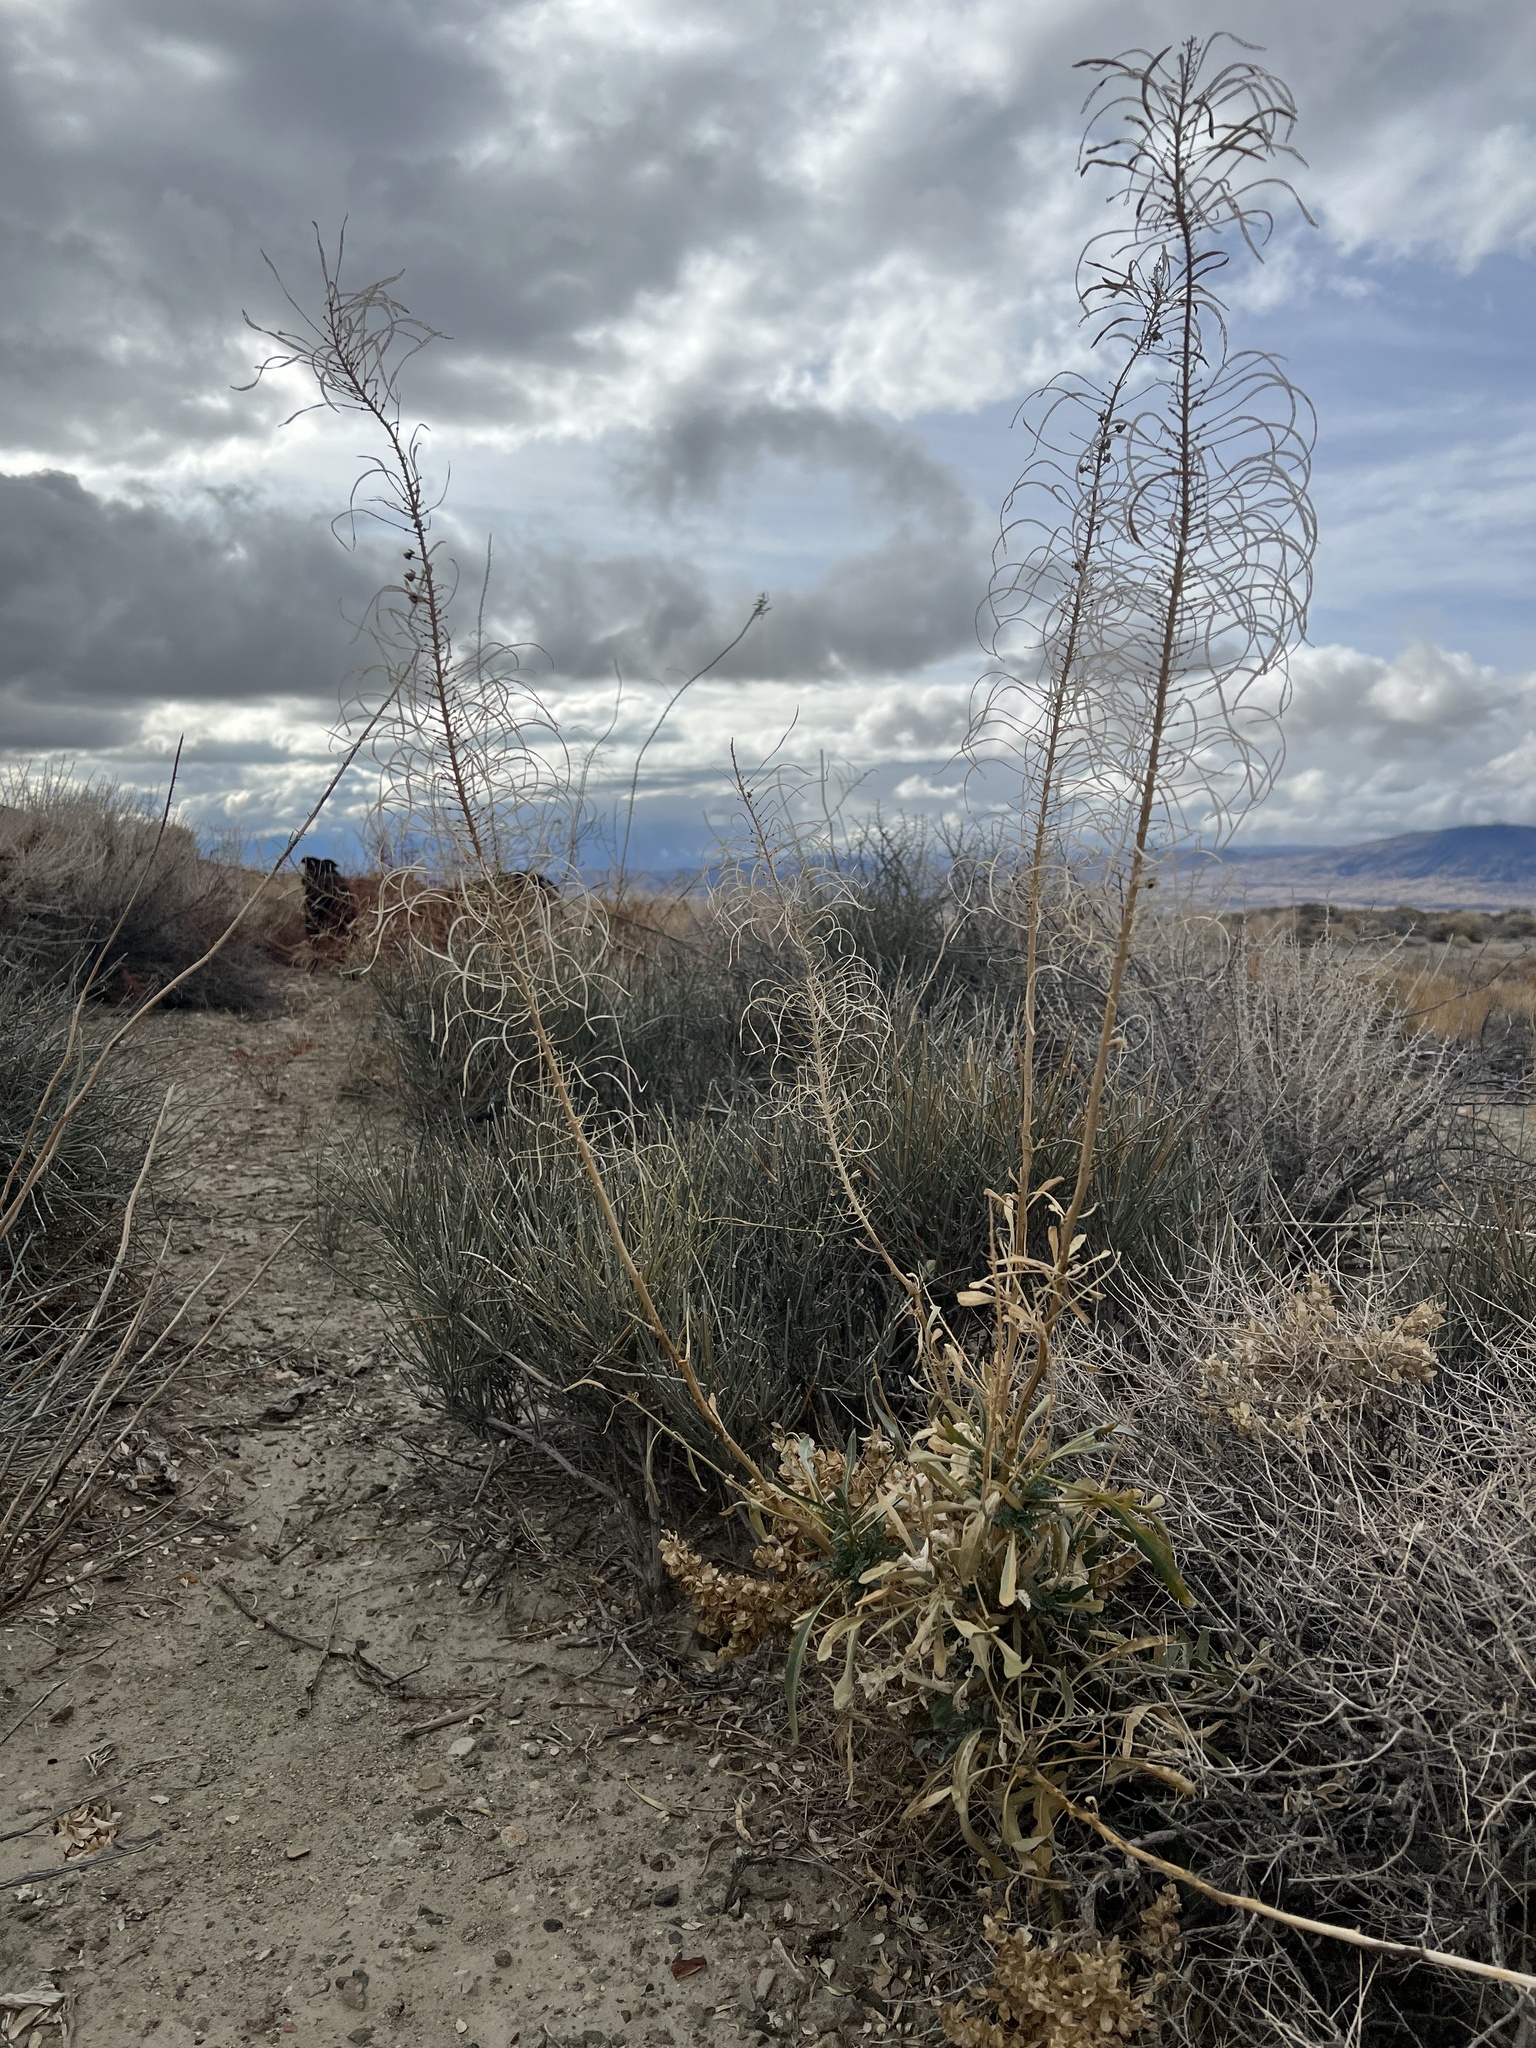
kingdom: Plantae
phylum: Tracheophyta
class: Magnoliopsida
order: Brassicales
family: Brassicaceae
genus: Stanleya
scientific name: Stanleya pinnata
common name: Prince's-plume
